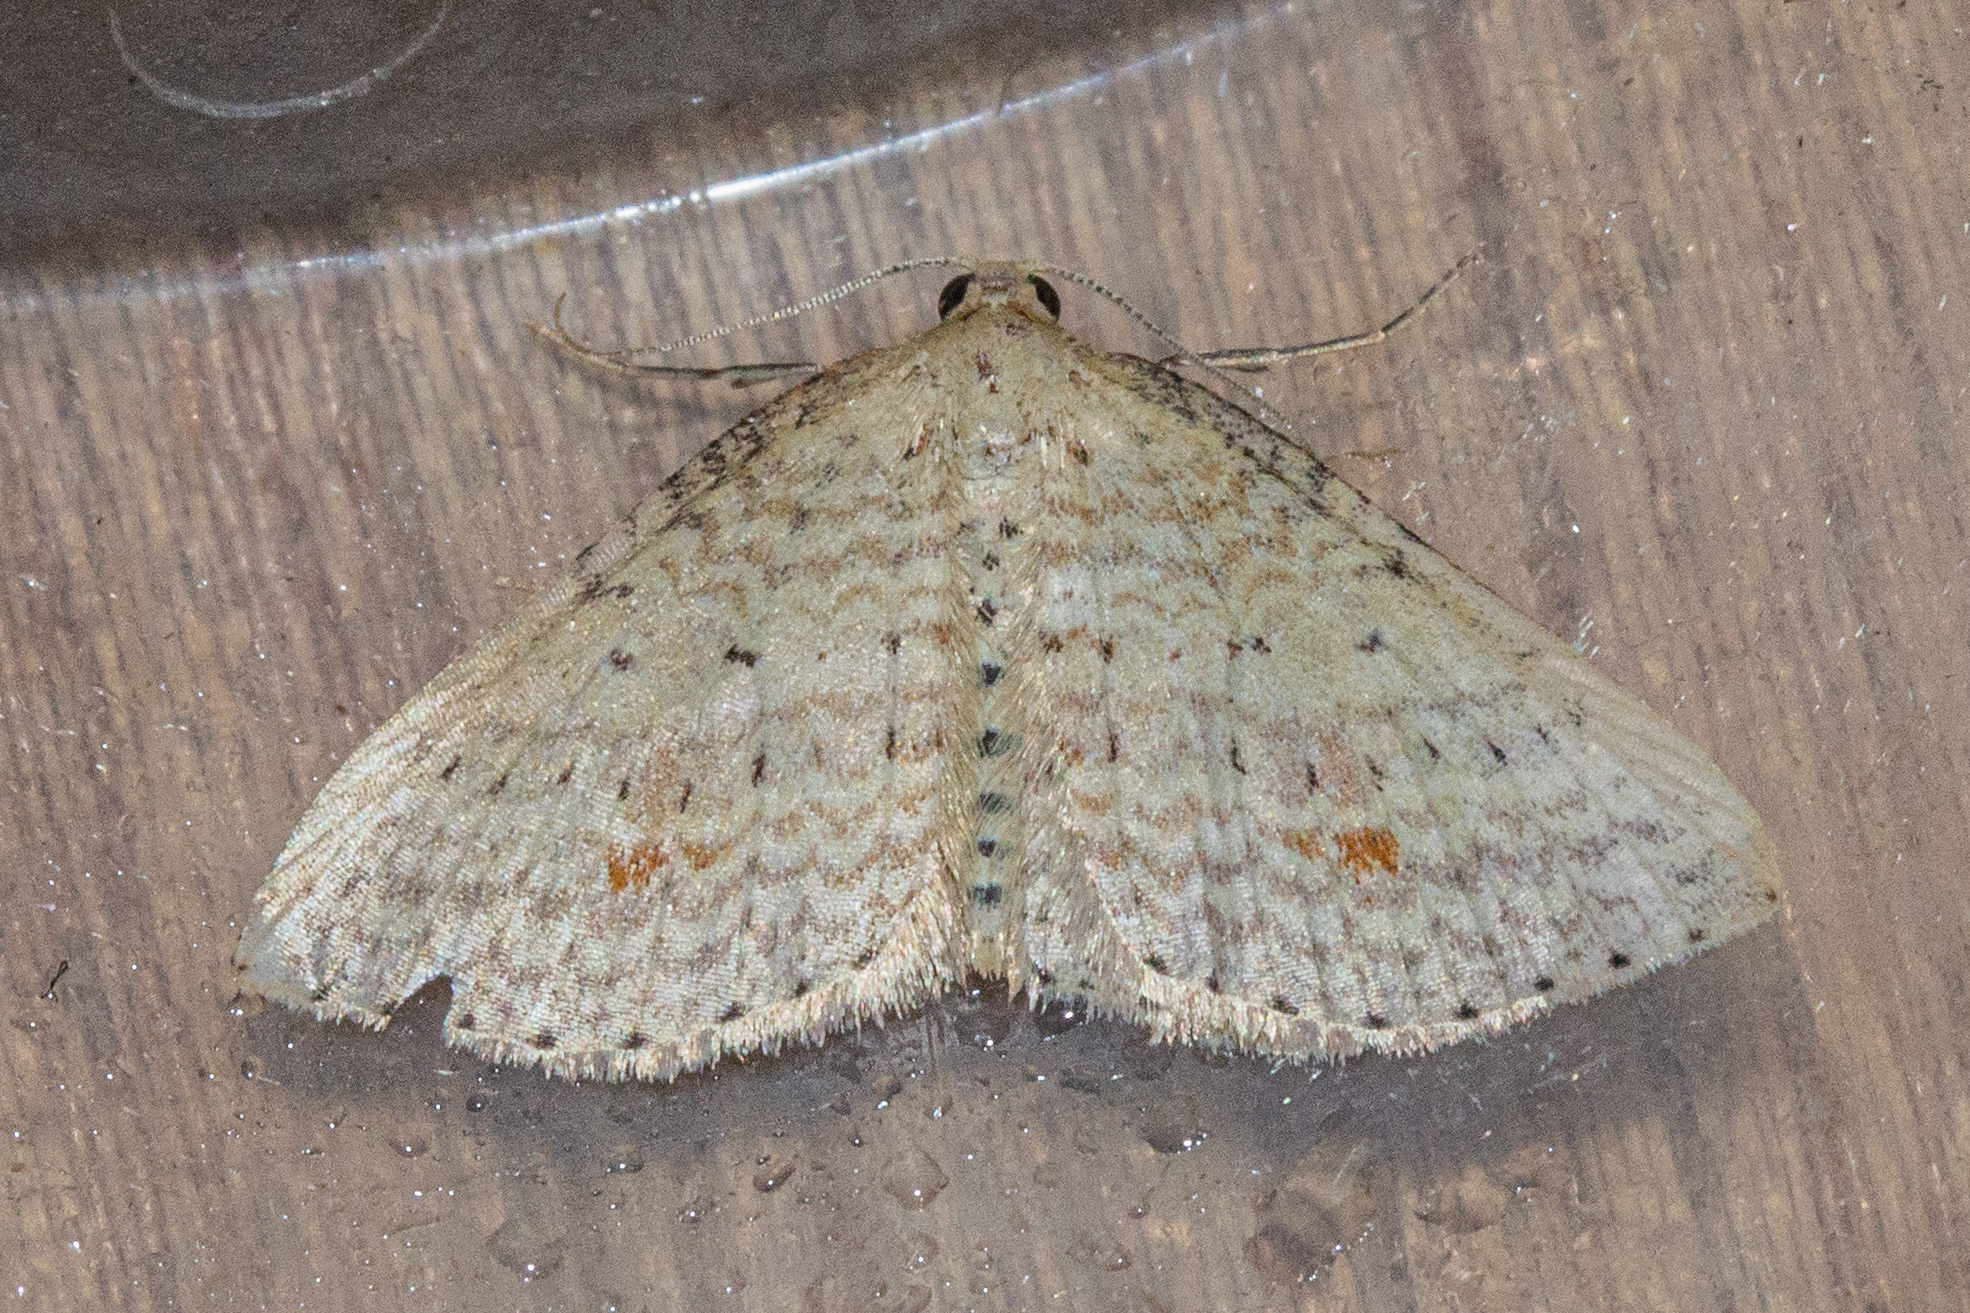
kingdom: Animalia
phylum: Arthropoda
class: Insecta
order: Lepidoptera
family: Geometridae
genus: Epicyme
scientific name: Epicyme rubropunctaria
